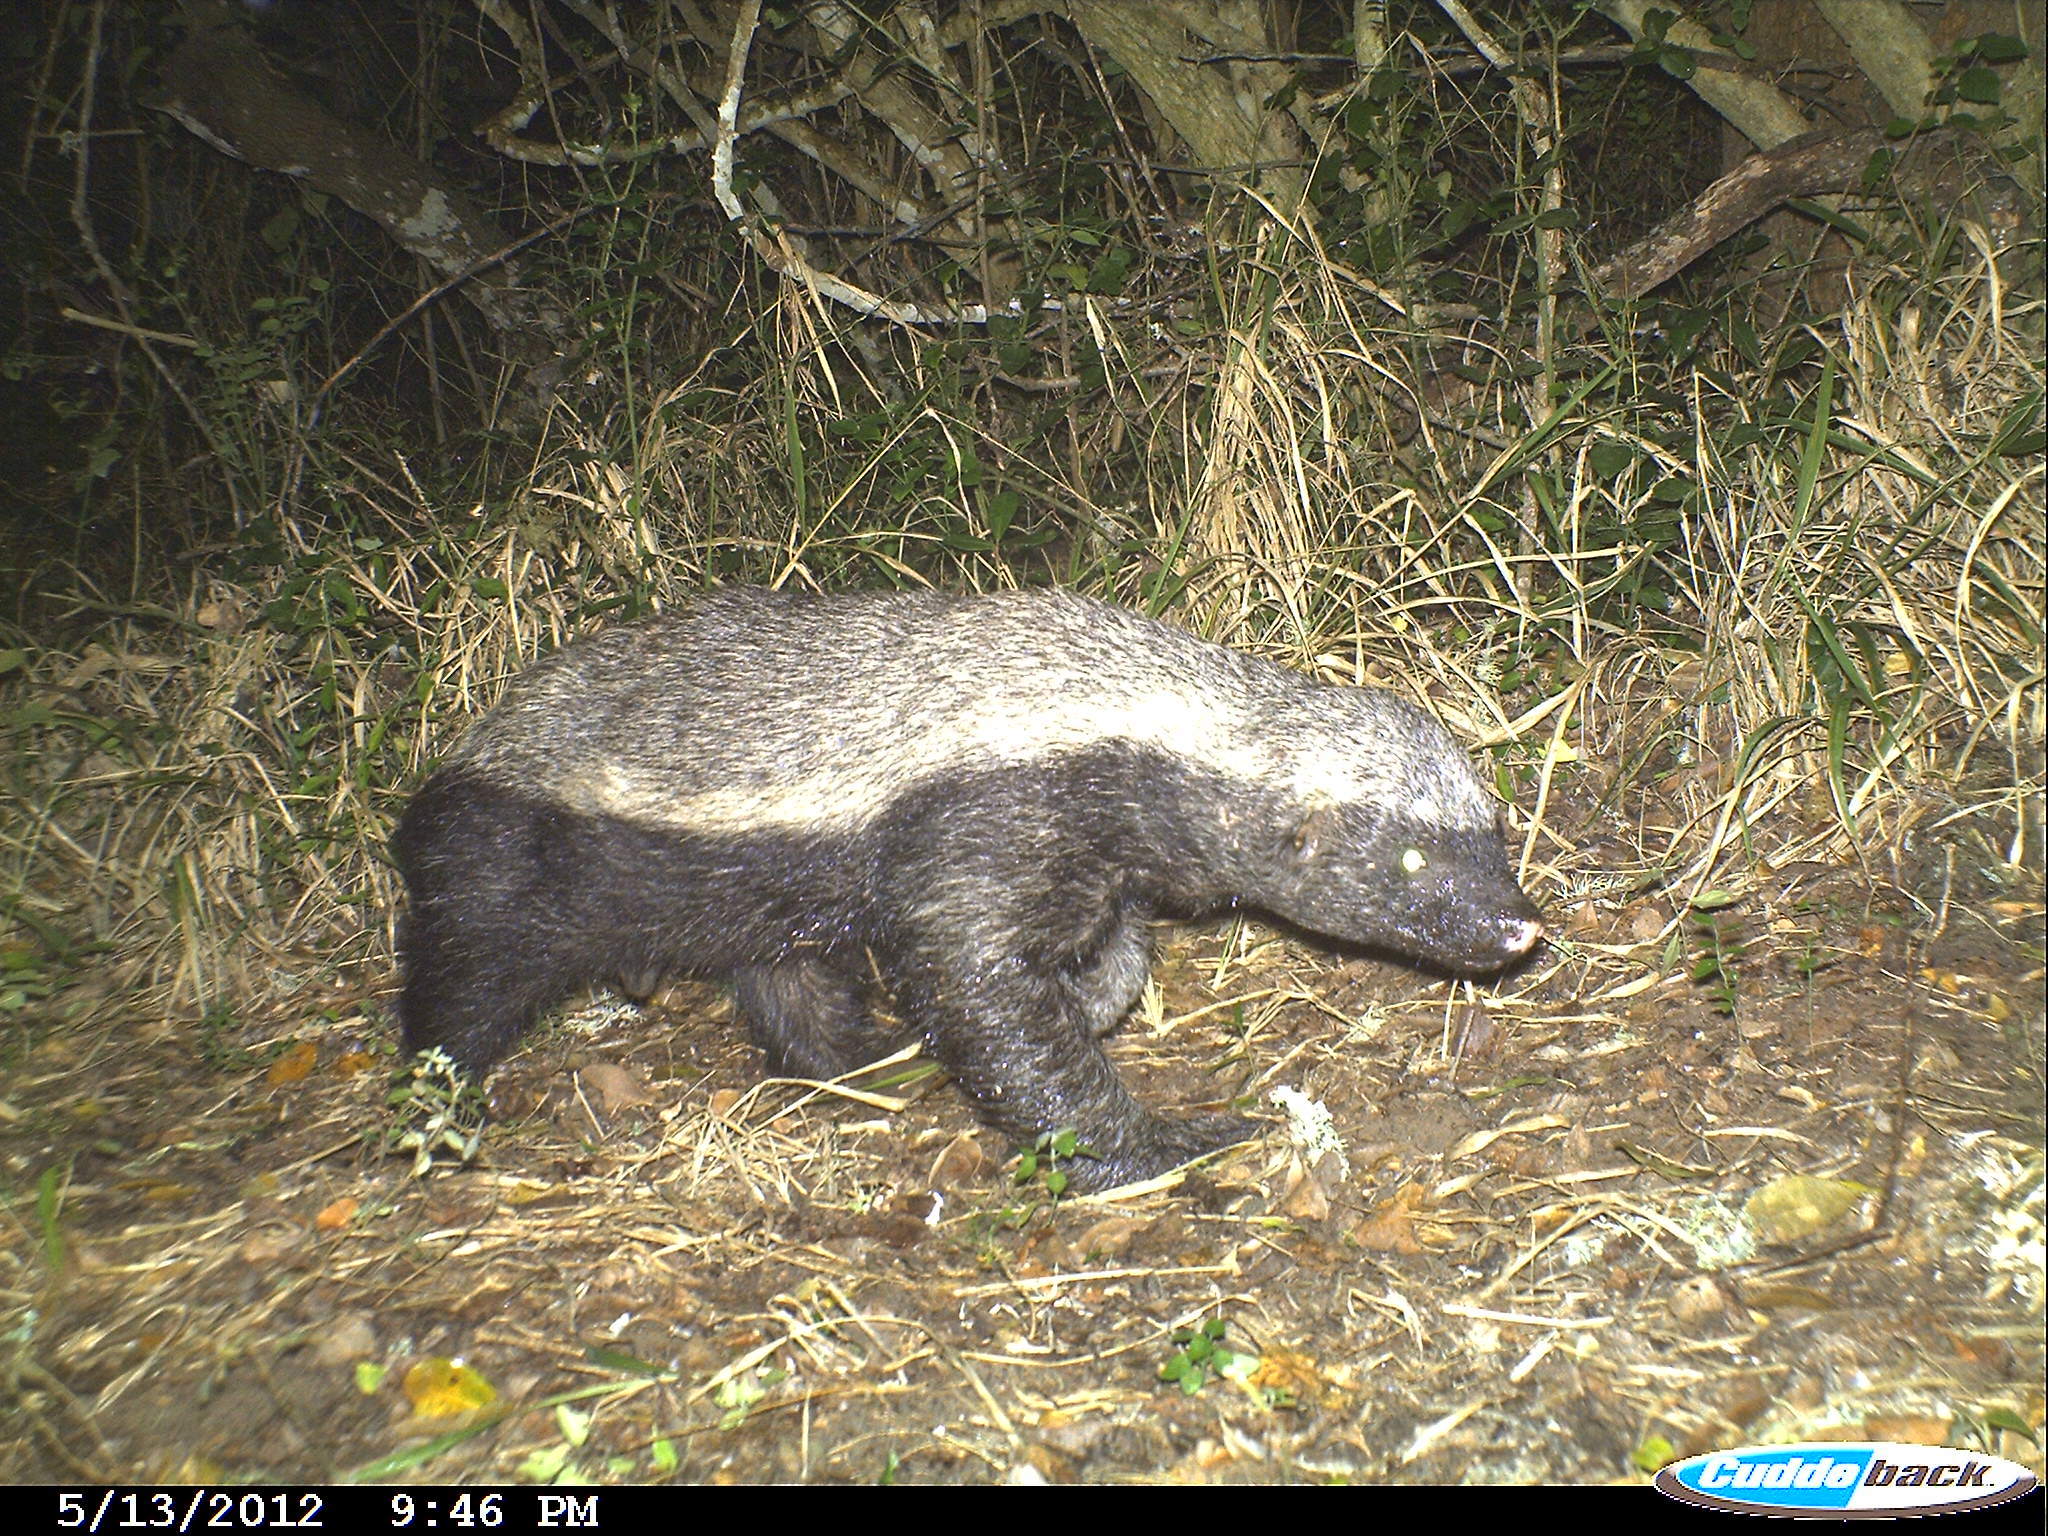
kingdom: Animalia
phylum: Chordata
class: Mammalia
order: Carnivora
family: Mustelidae
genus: Mellivora
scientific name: Mellivora capensis
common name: Honey badger
